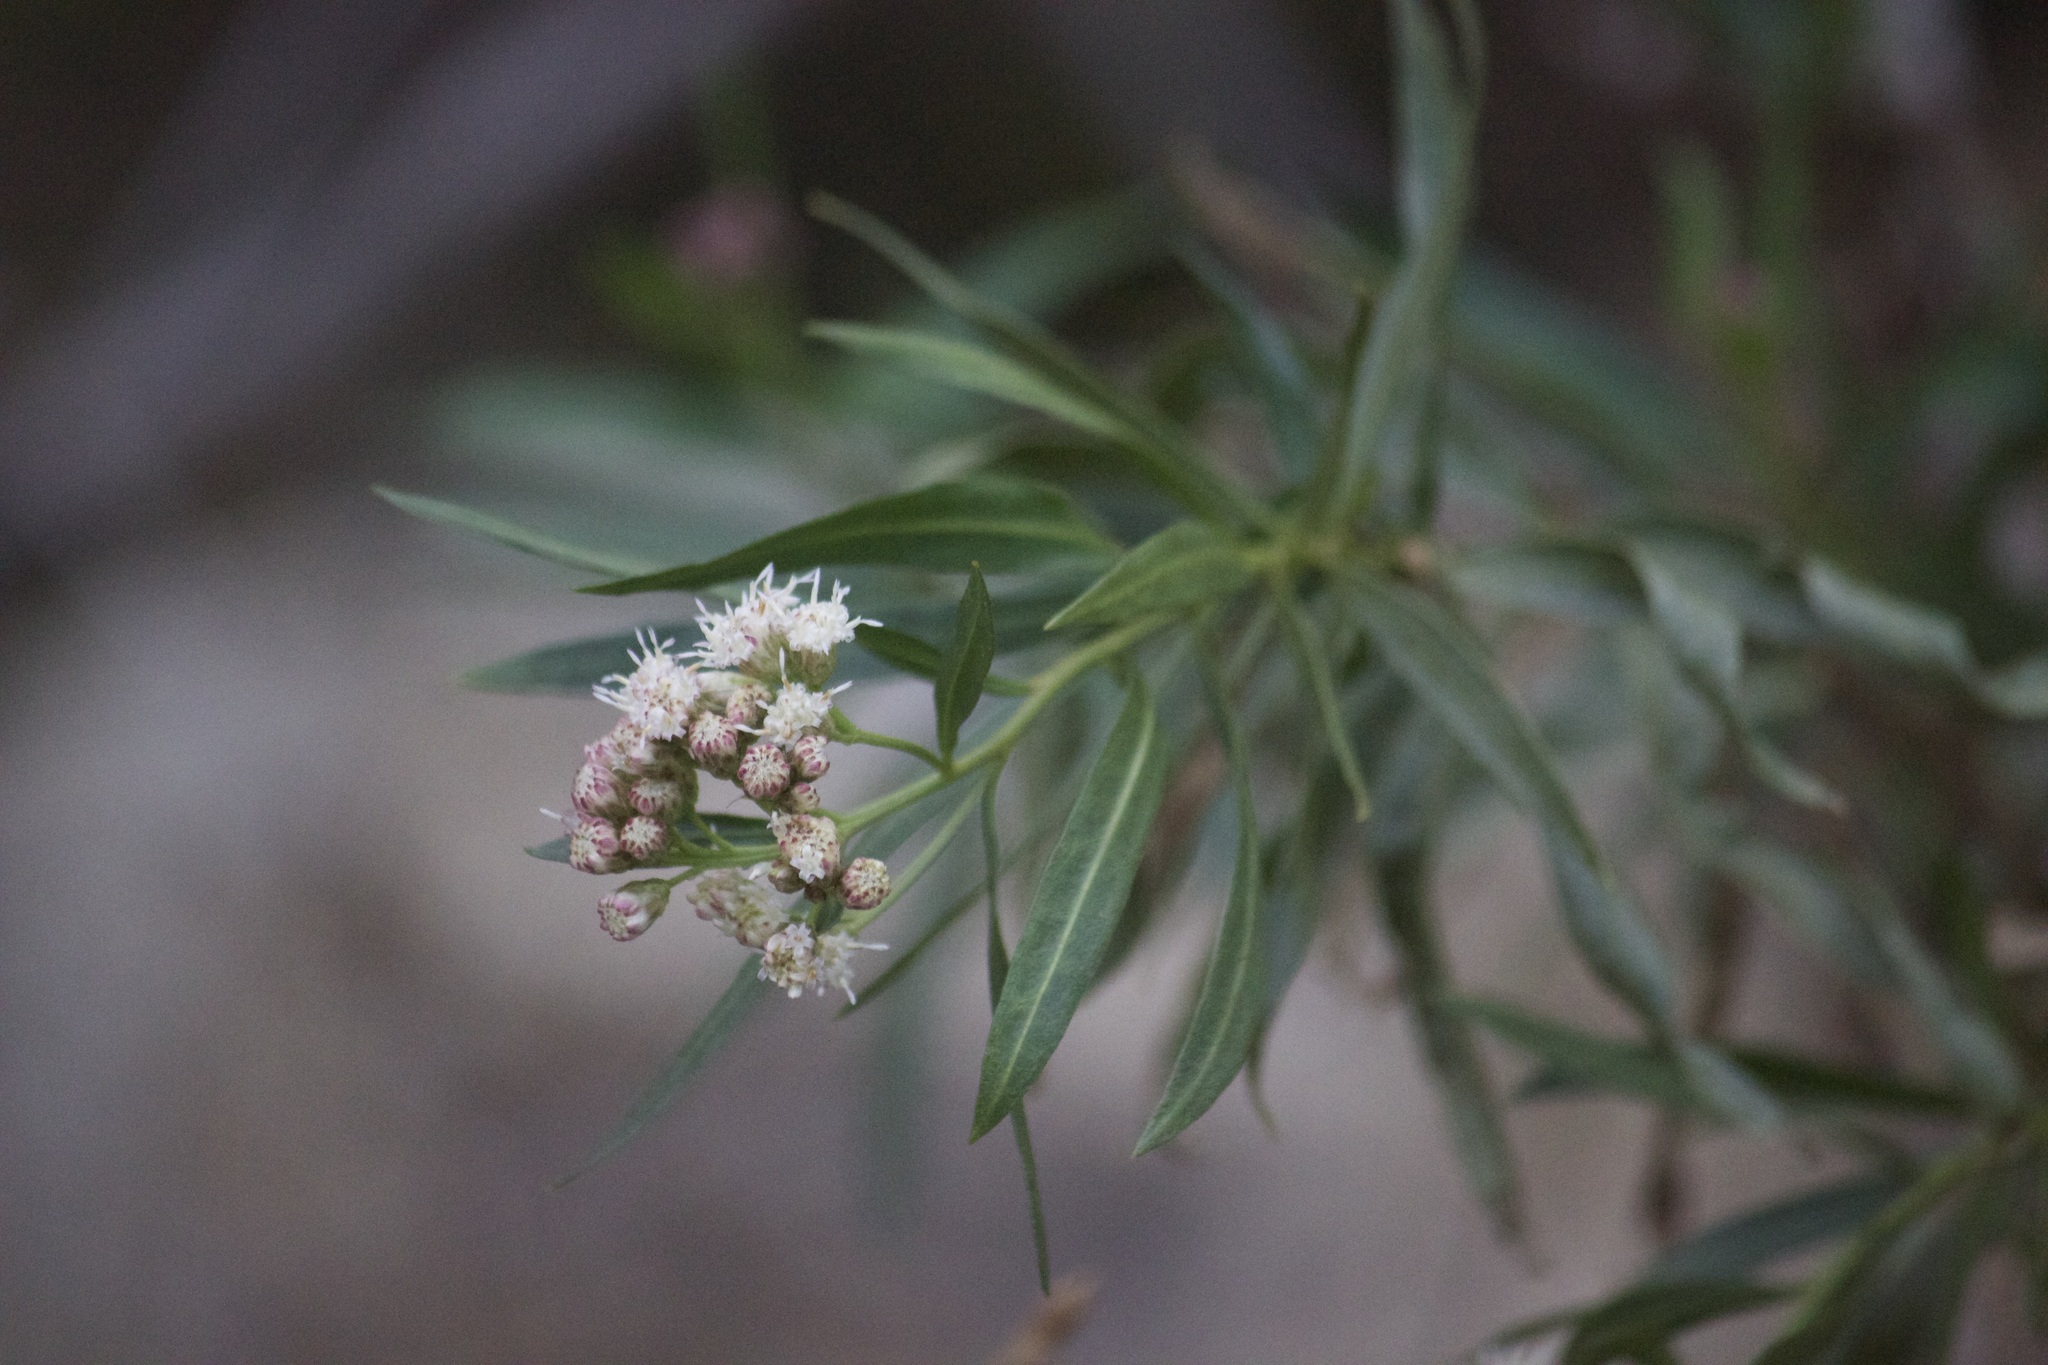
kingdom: Plantae
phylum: Tracheophyta
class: Magnoliopsida
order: Asterales
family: Asteraceae
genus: Baccharis
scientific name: Baccharis salicifolia
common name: Sticky baccharis
